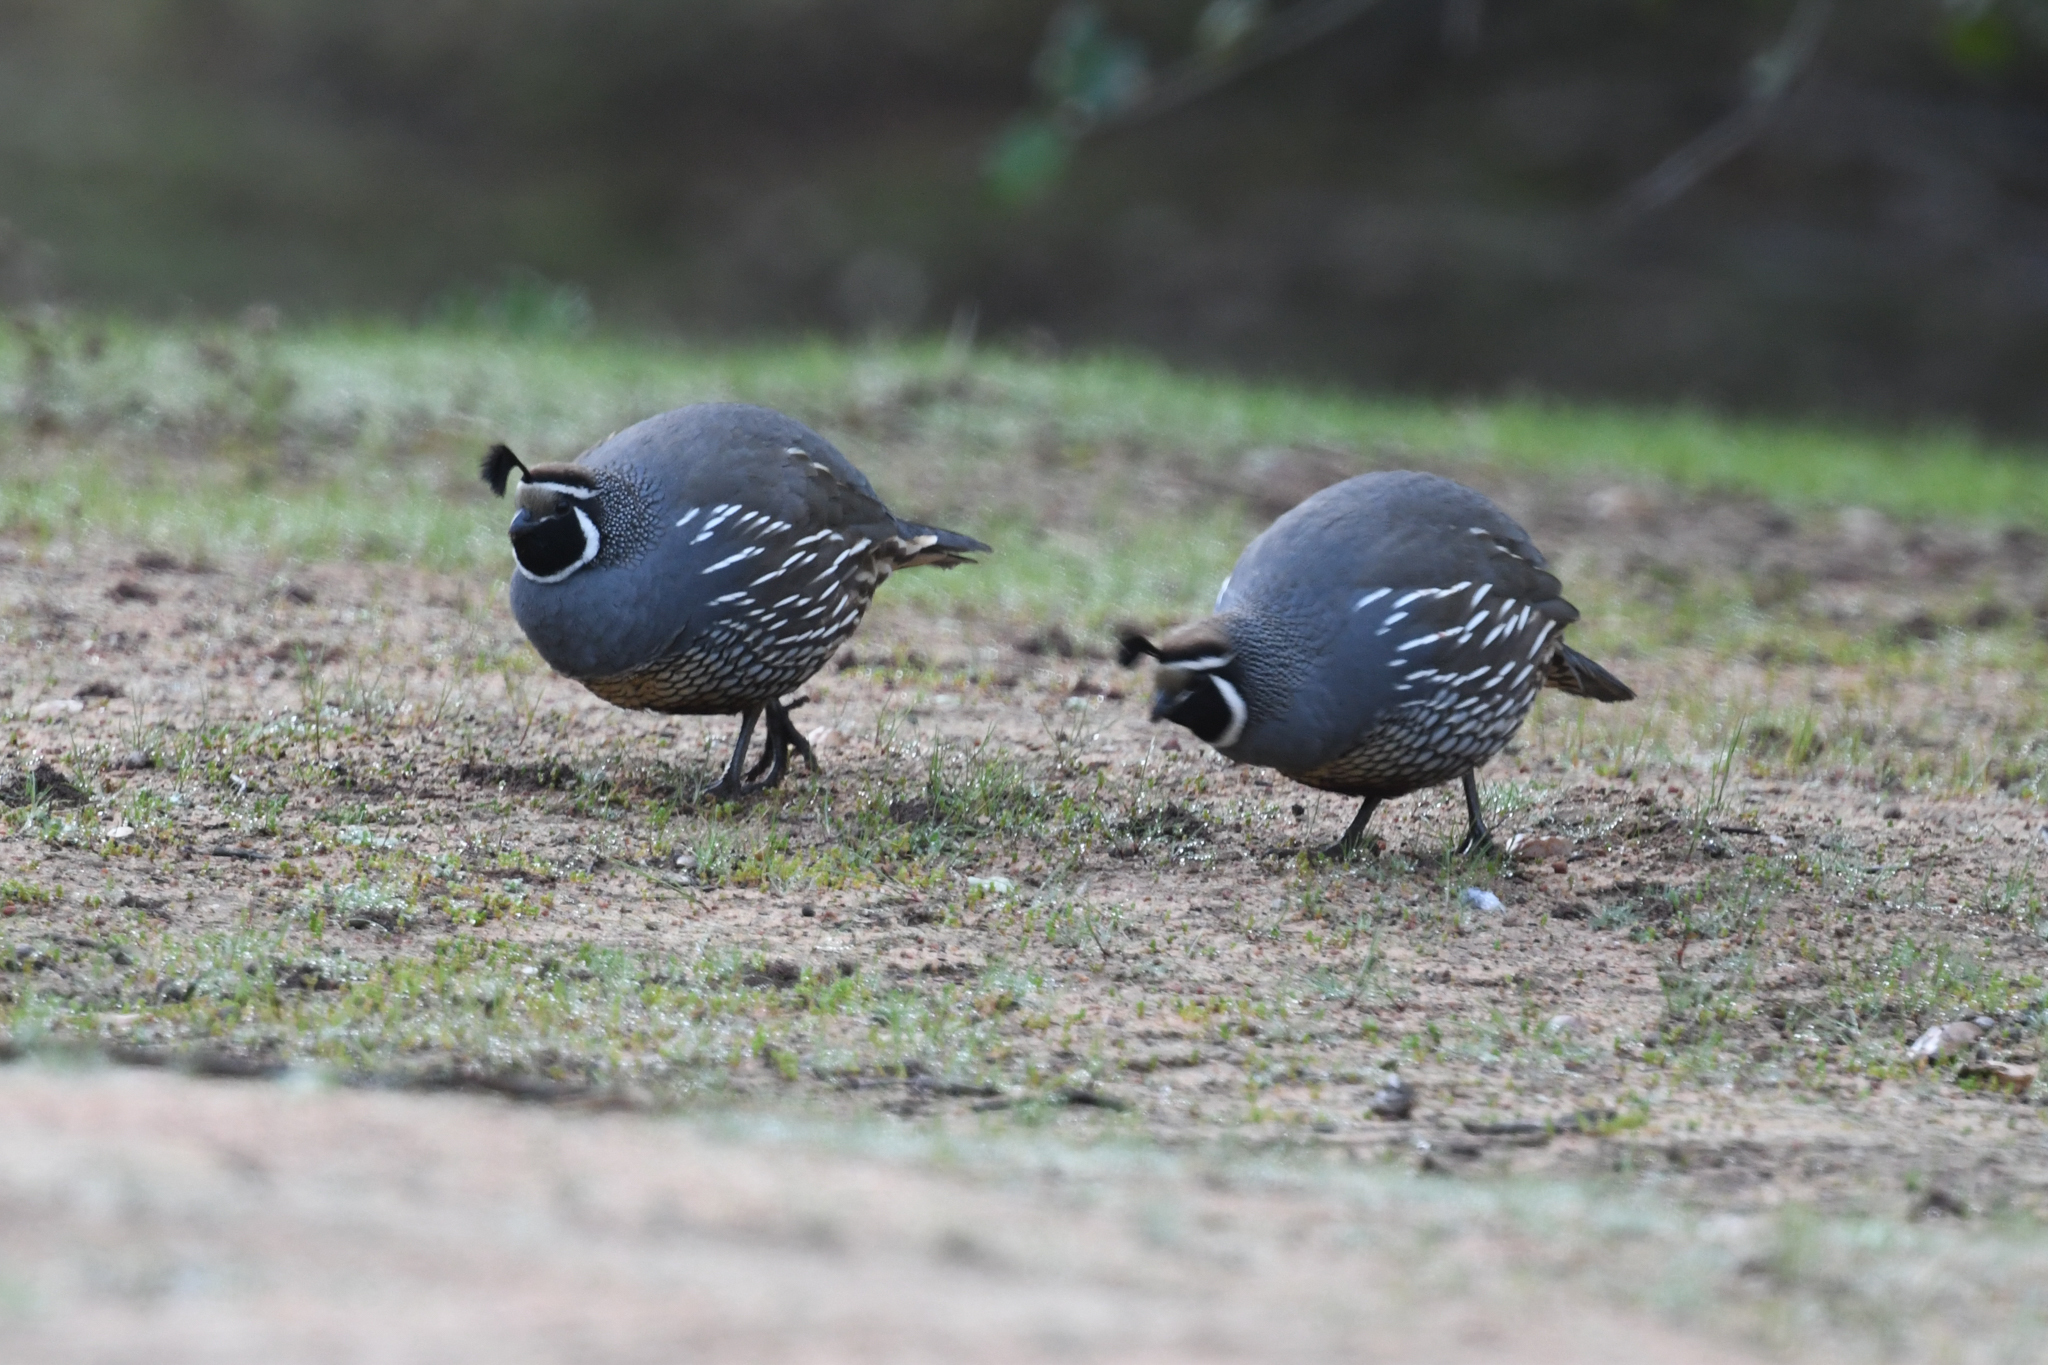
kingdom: Animalia
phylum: Chordata
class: Aves
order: Galliformes
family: Odontophoridae
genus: Callipepla
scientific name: Callipepla californica
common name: California quail
